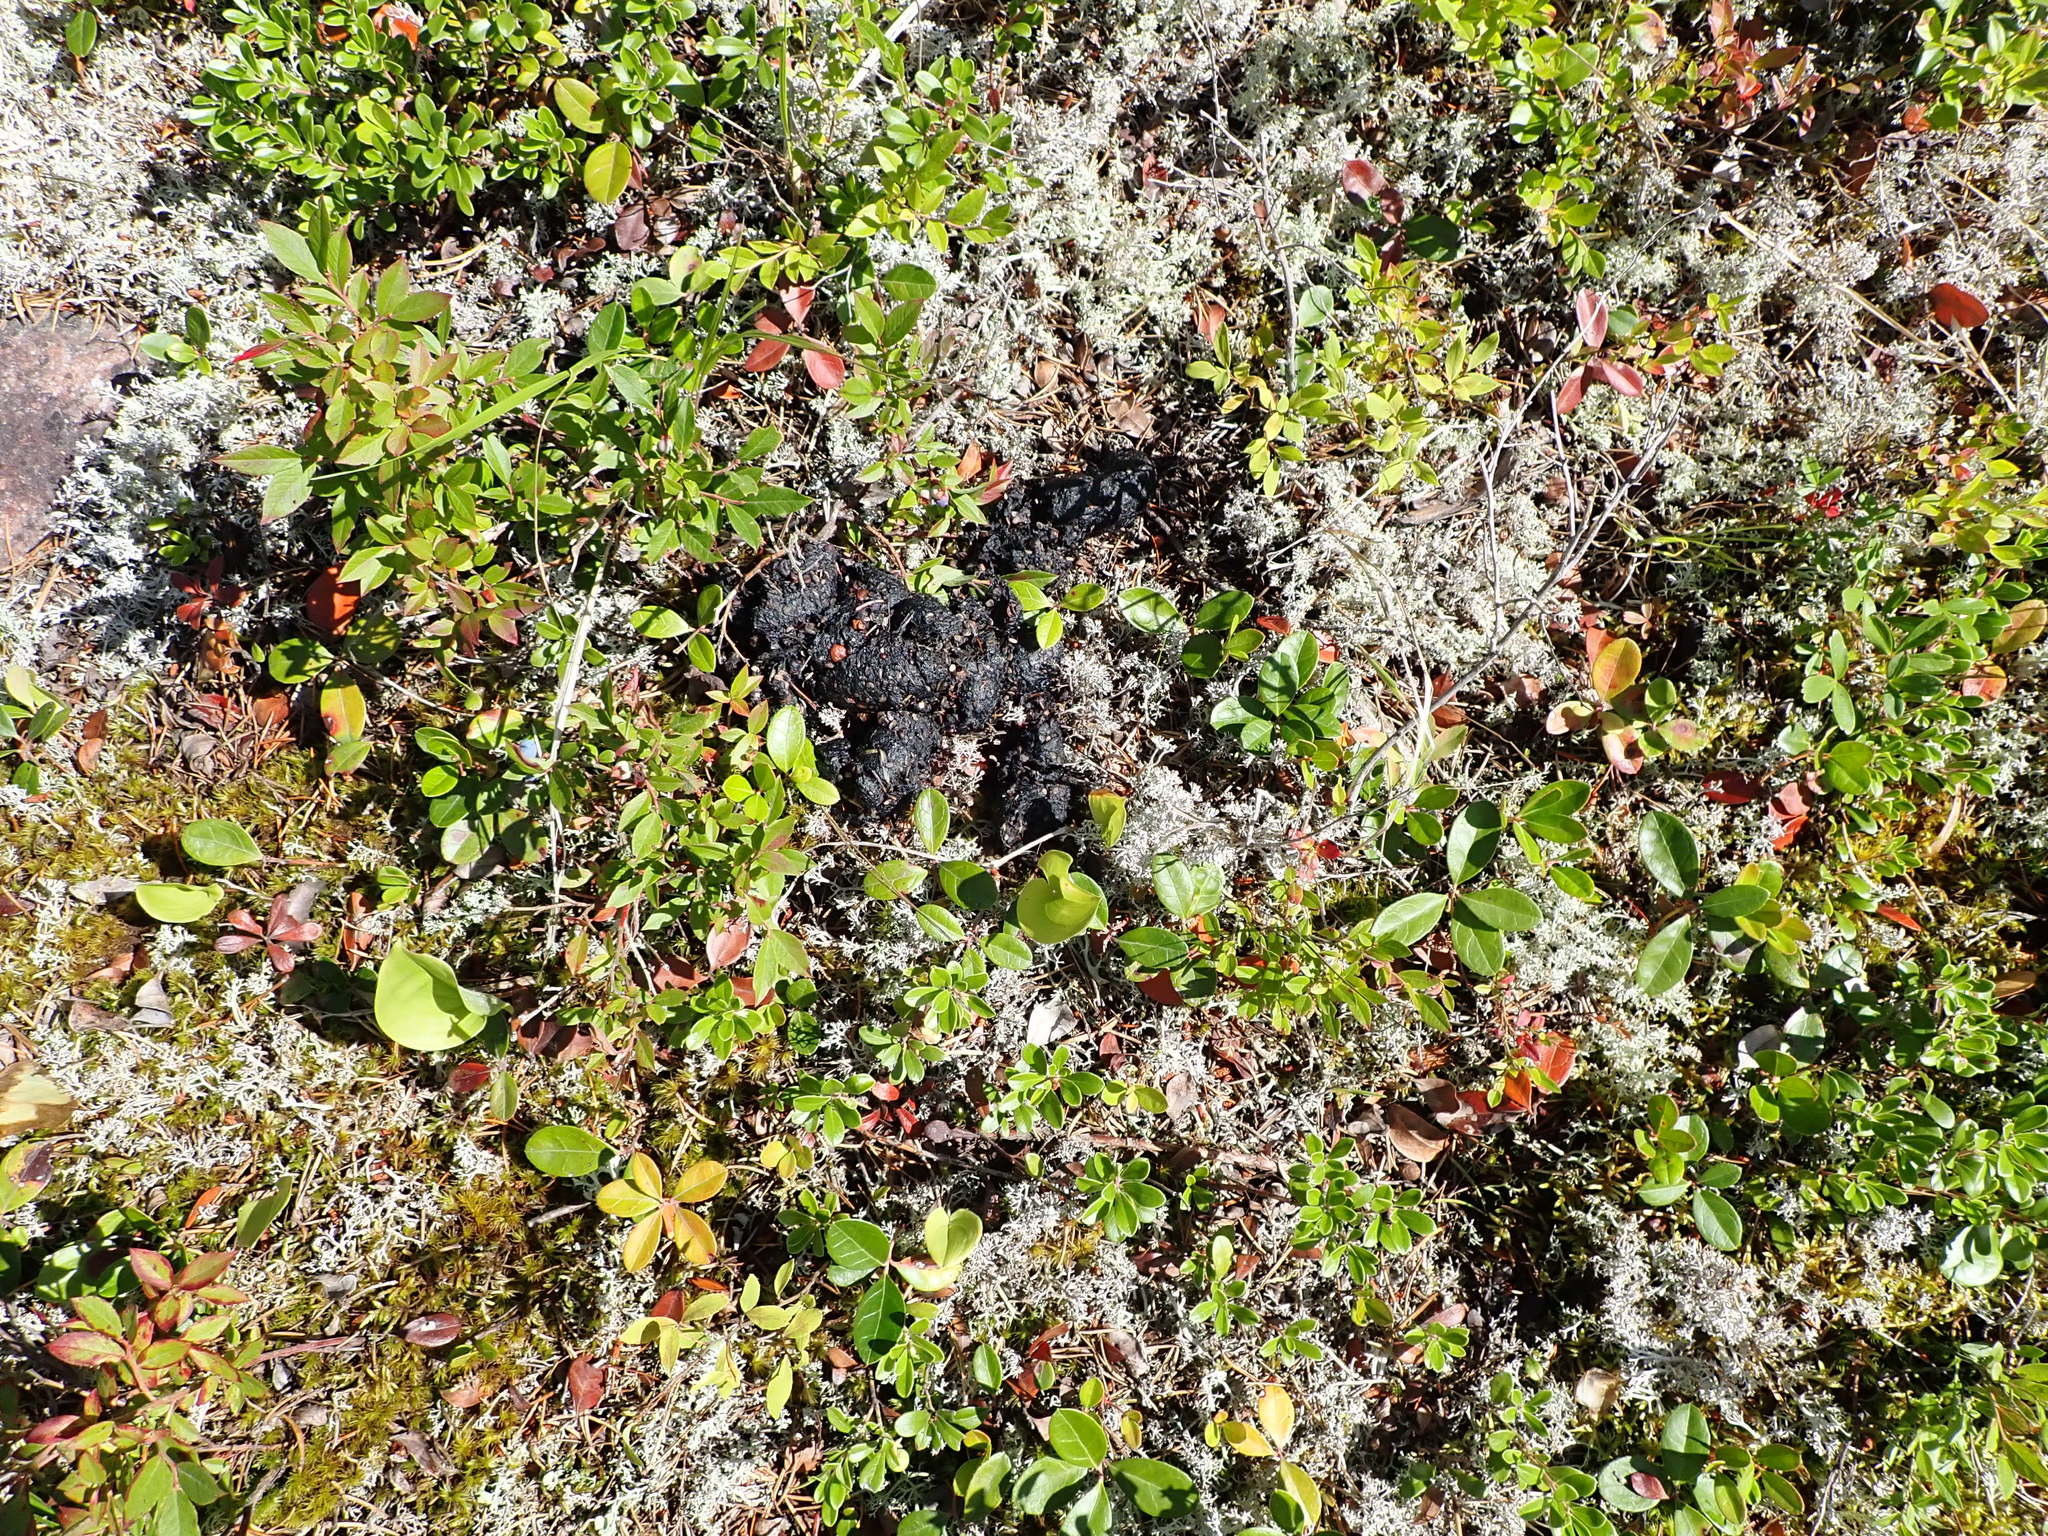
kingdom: Animalia
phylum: Chordata
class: Mammalia
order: Carnivora
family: Ursidae
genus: Ursus
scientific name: Ursus americanus
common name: American black bear
